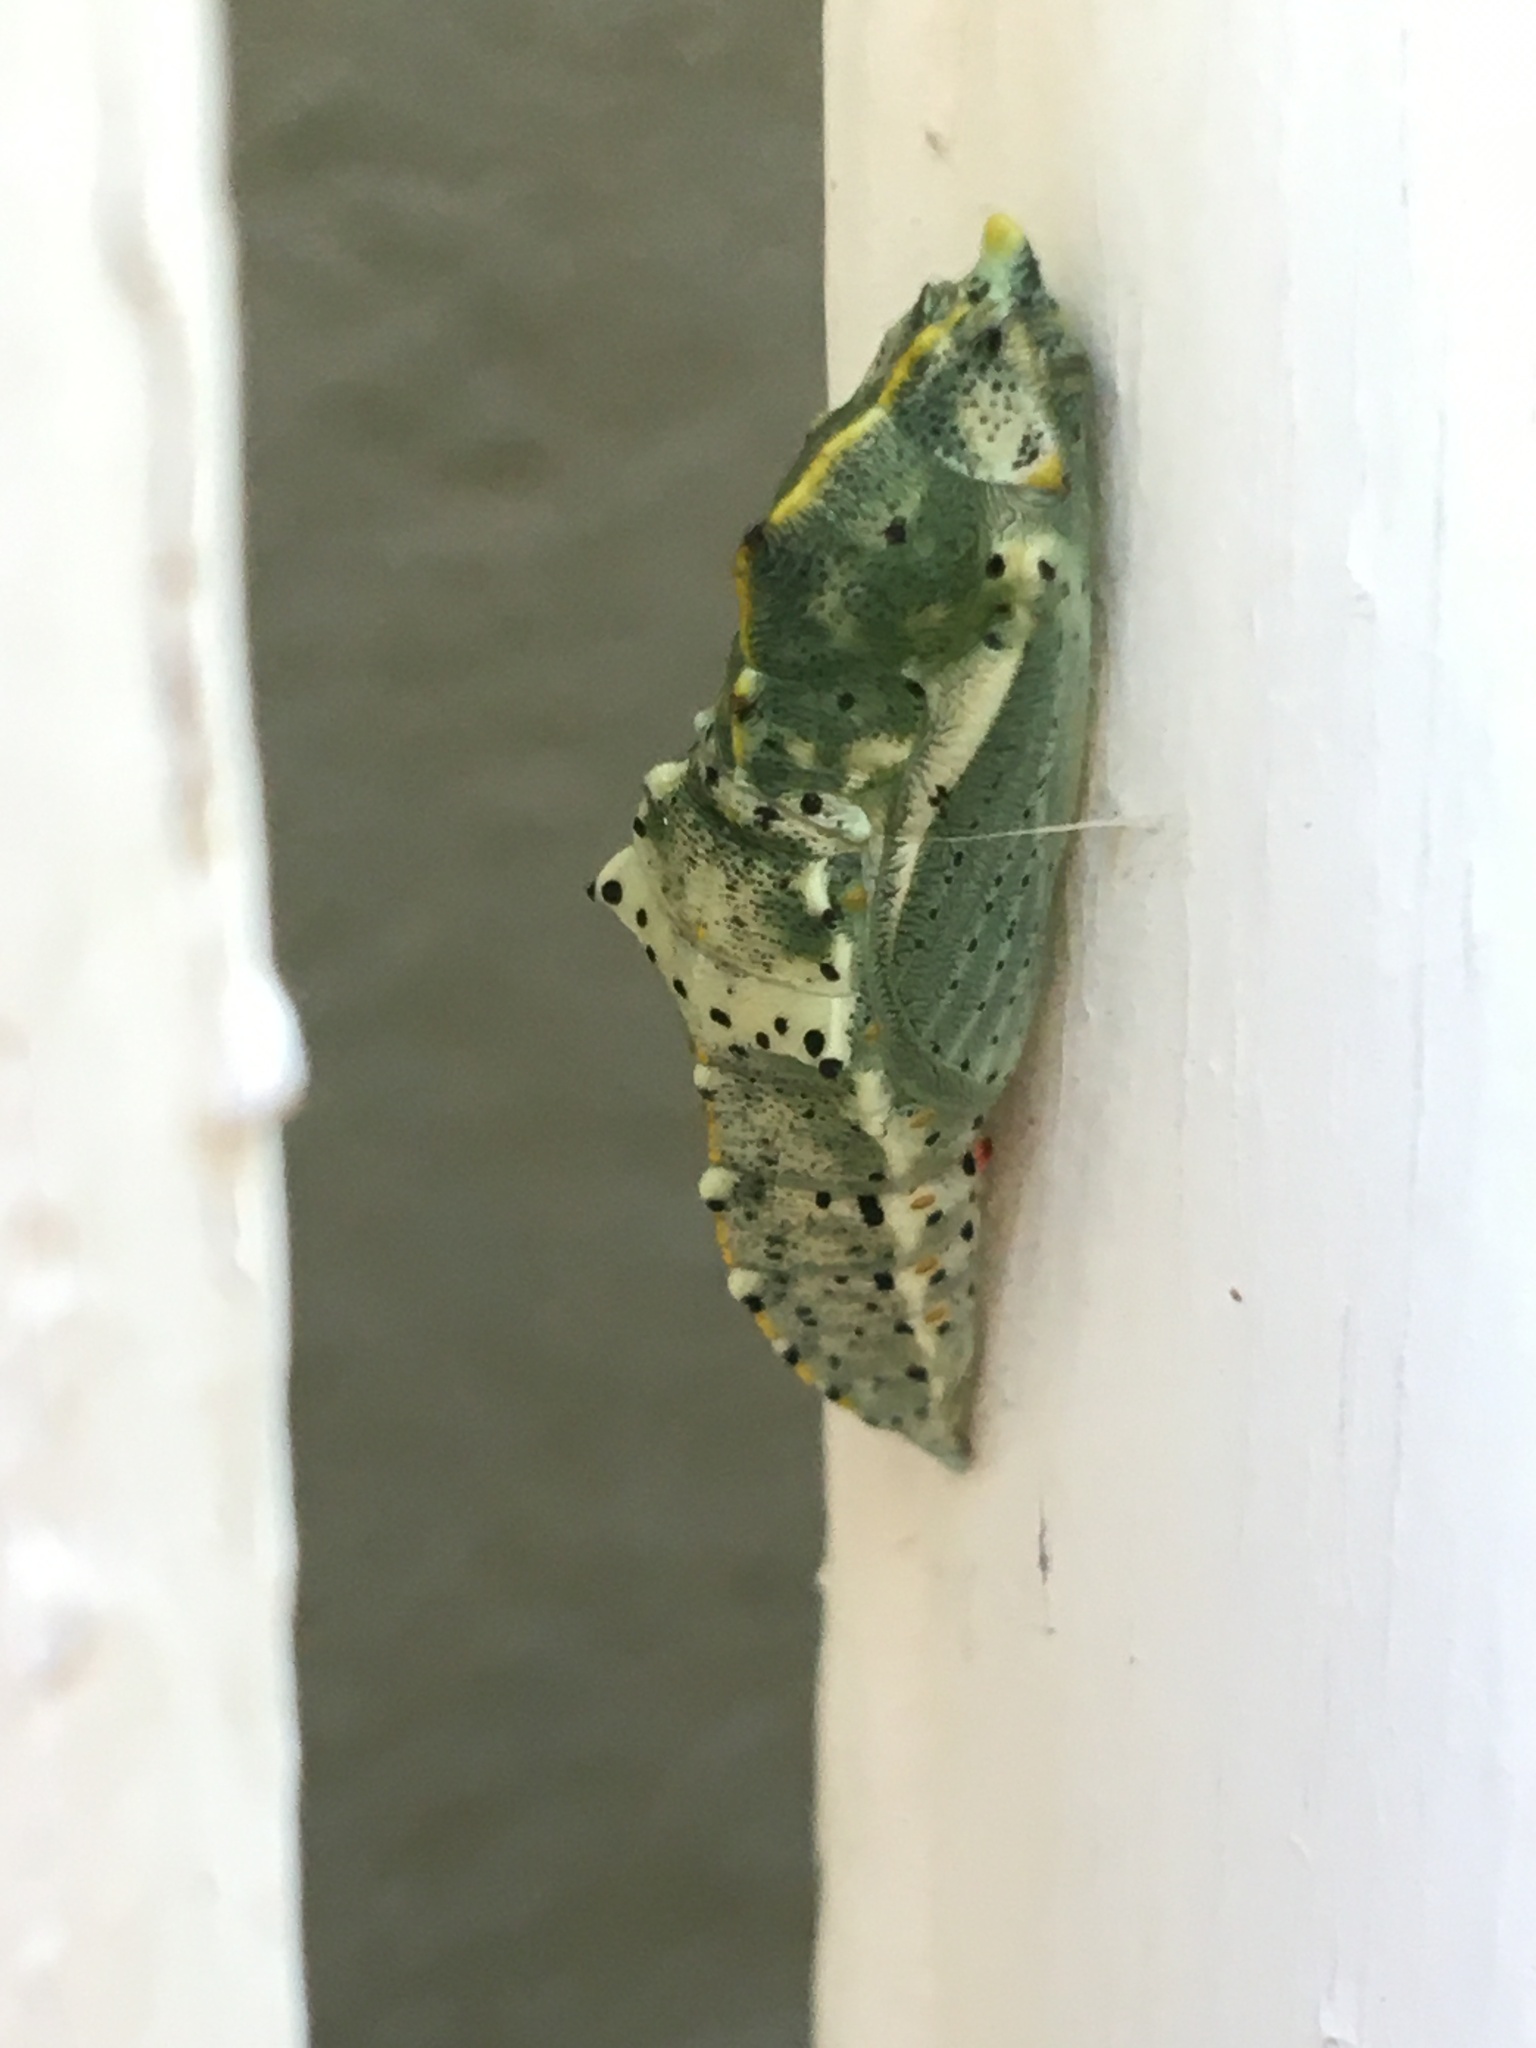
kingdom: Animalia
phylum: Arthropoda
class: Insecta
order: Lepidoptera
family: Pieridae
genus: Pieris
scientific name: Pieris brassicae
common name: Large white
